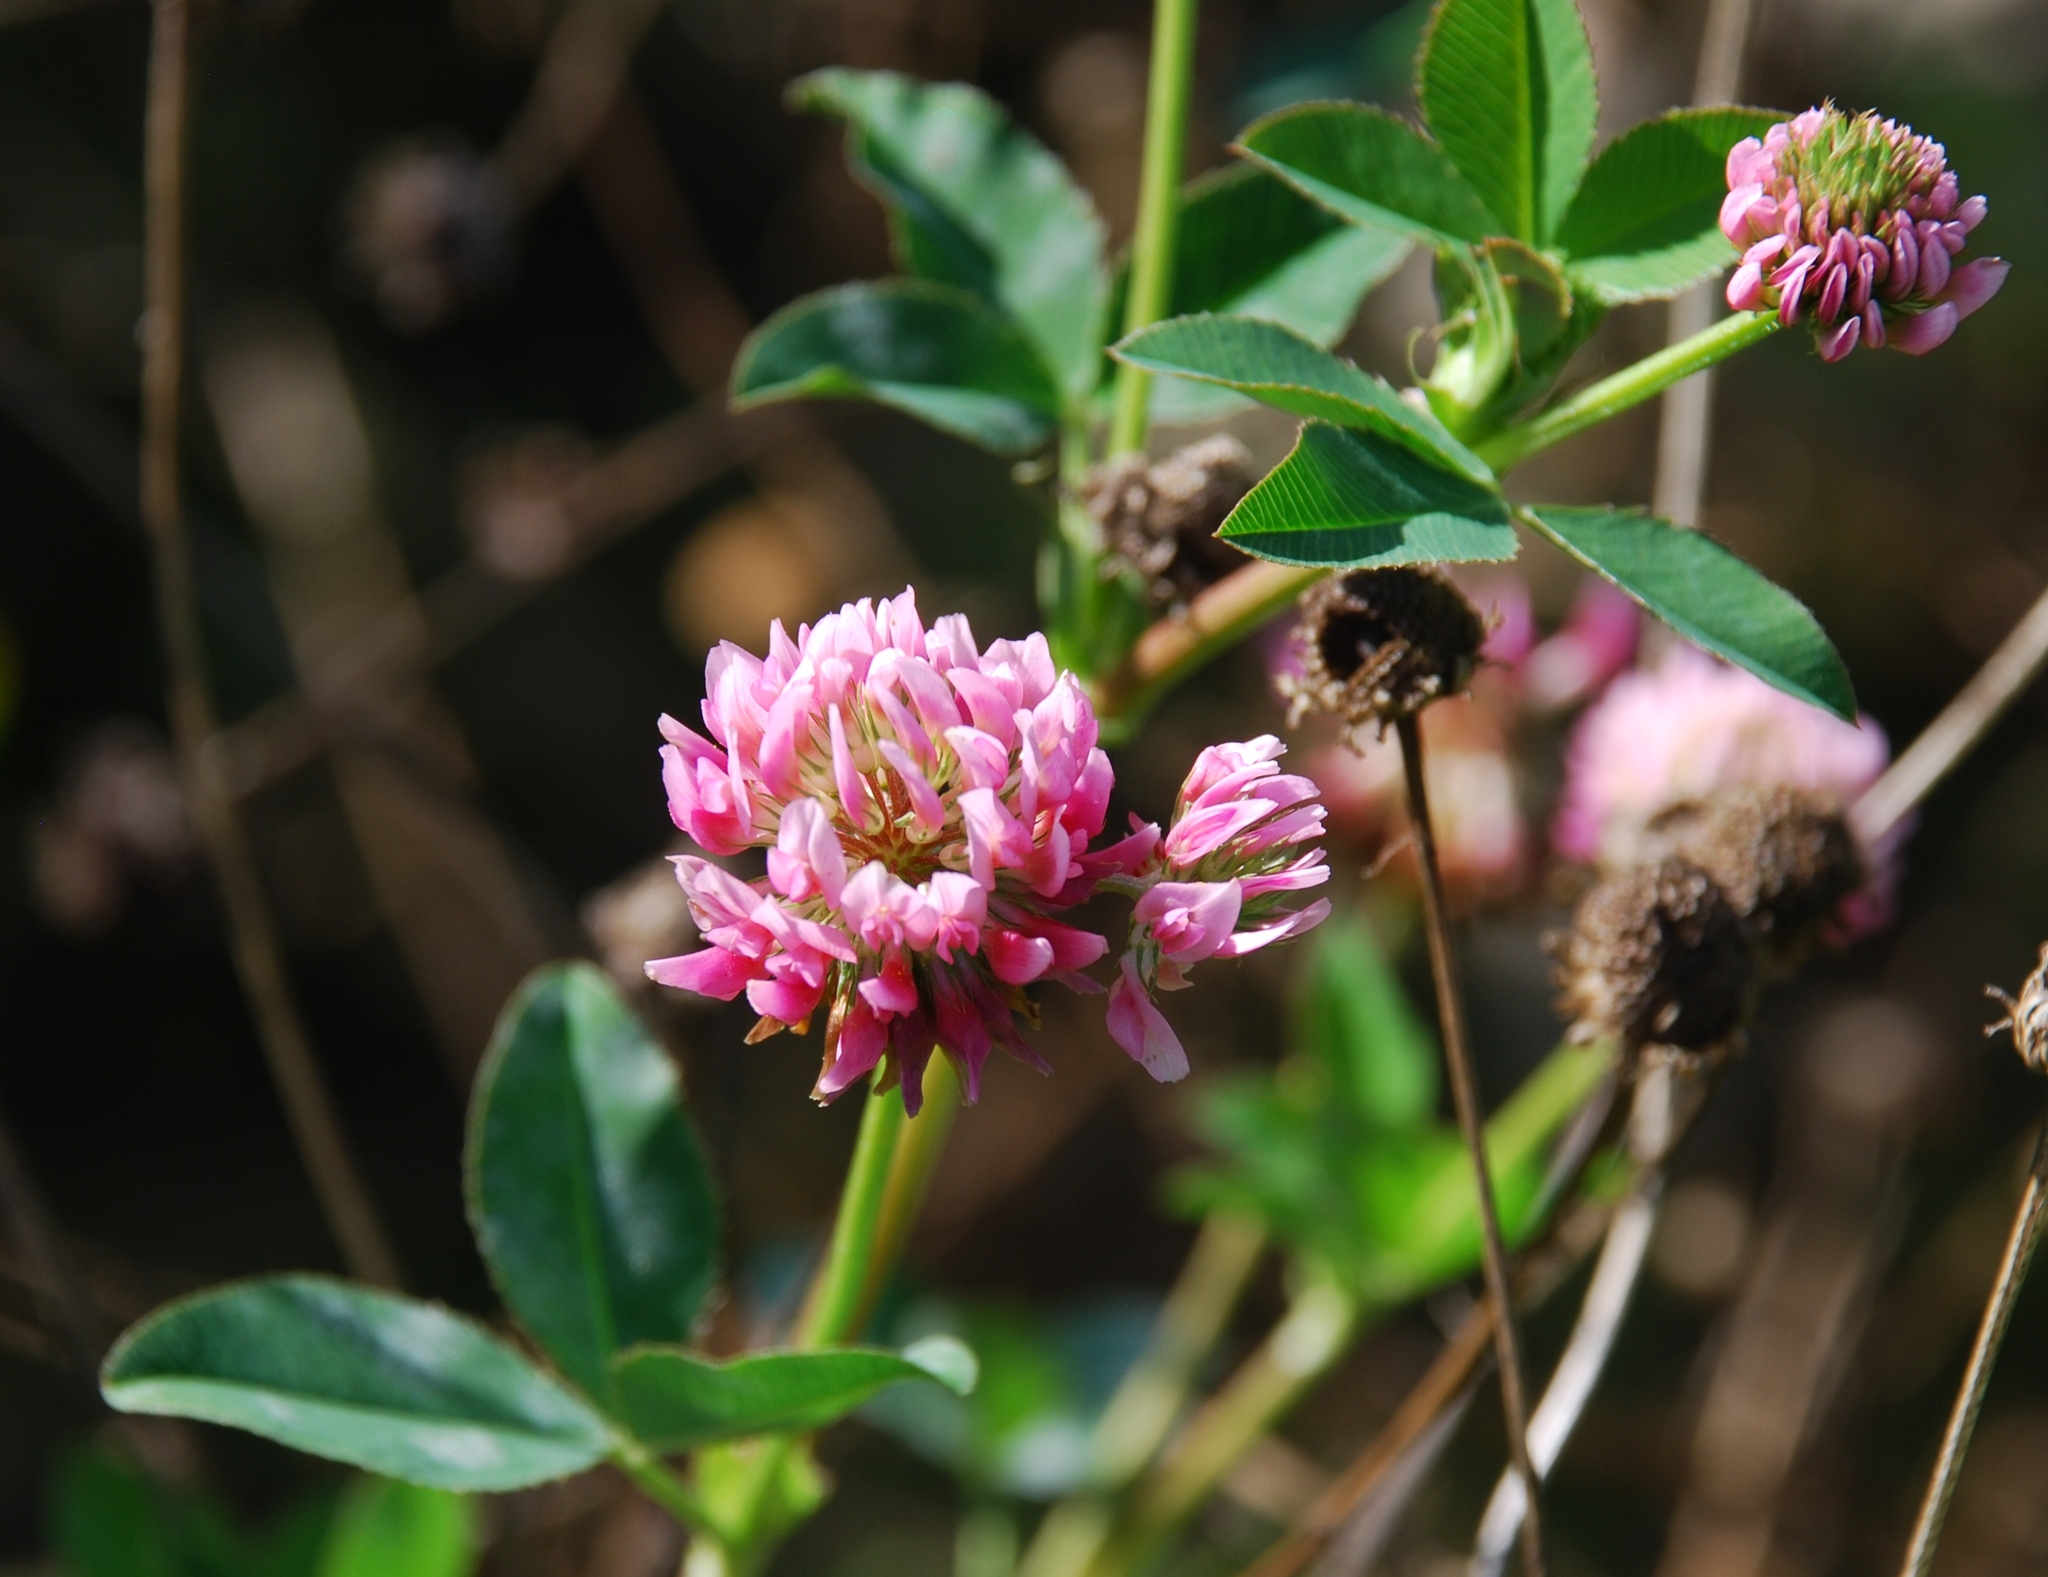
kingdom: Plantae
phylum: Tracheophyta
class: Magnoliopsida
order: Fabales
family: Fabaceae
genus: Trifolium
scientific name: Trifolium hybridum
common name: Alsike clover
